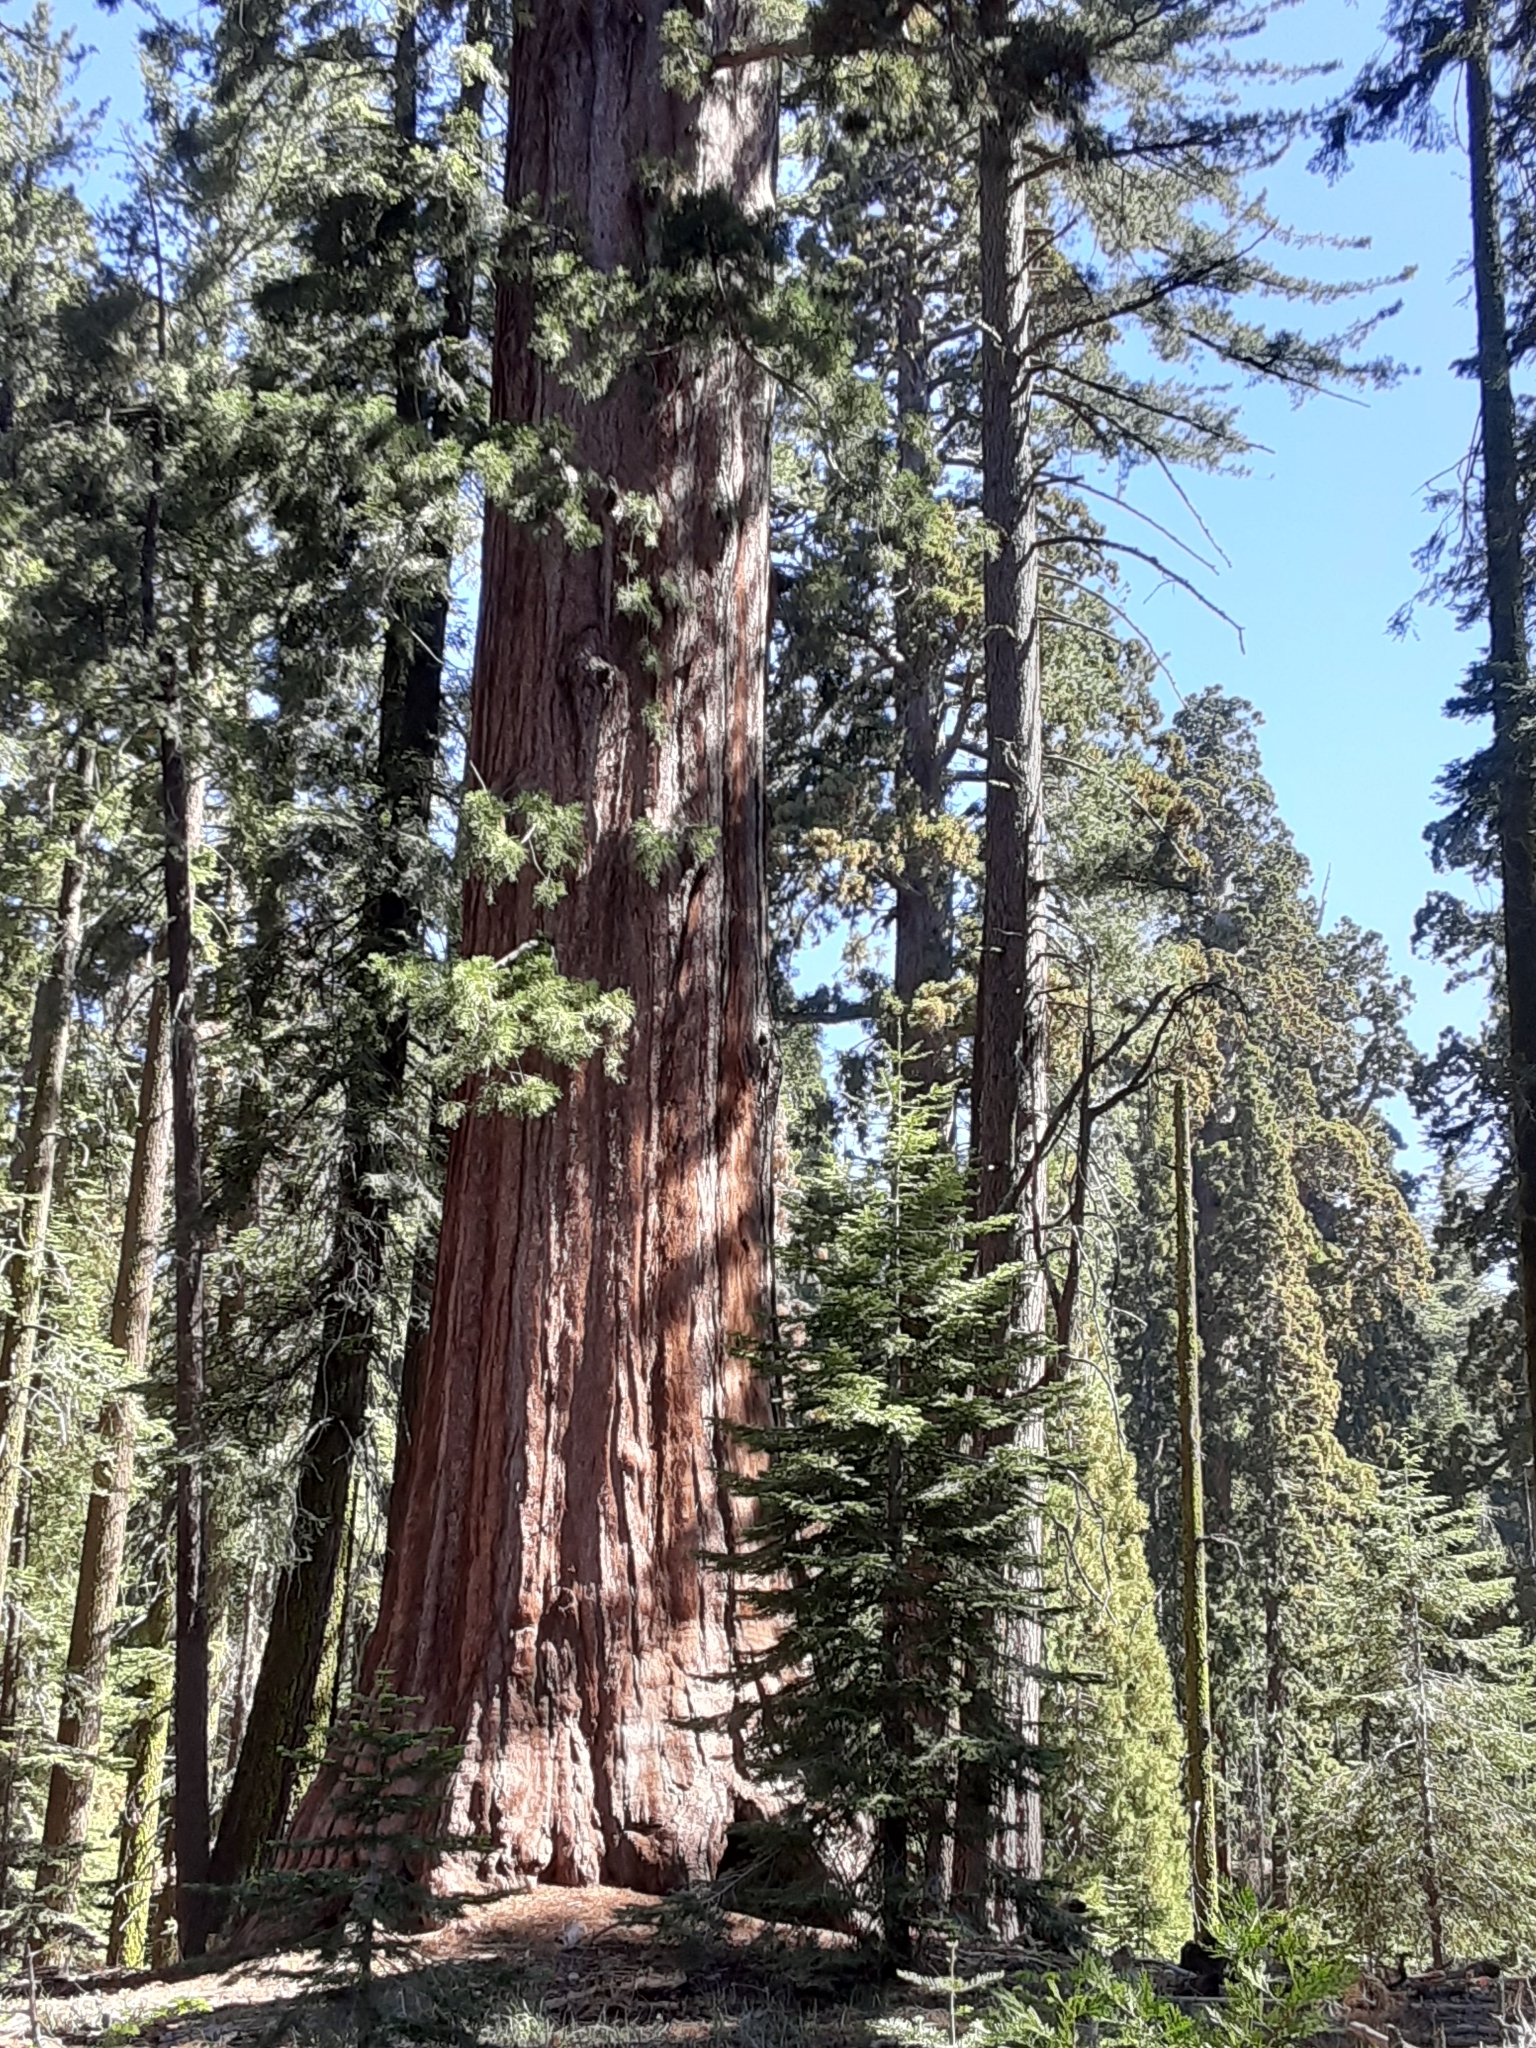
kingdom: Plantae
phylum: Tracheophyta
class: Pinopsida
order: Pinales
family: Cupressaceae
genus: Sequoiadendron
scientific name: Sequoiadendron giganteum
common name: Wellingtonia
